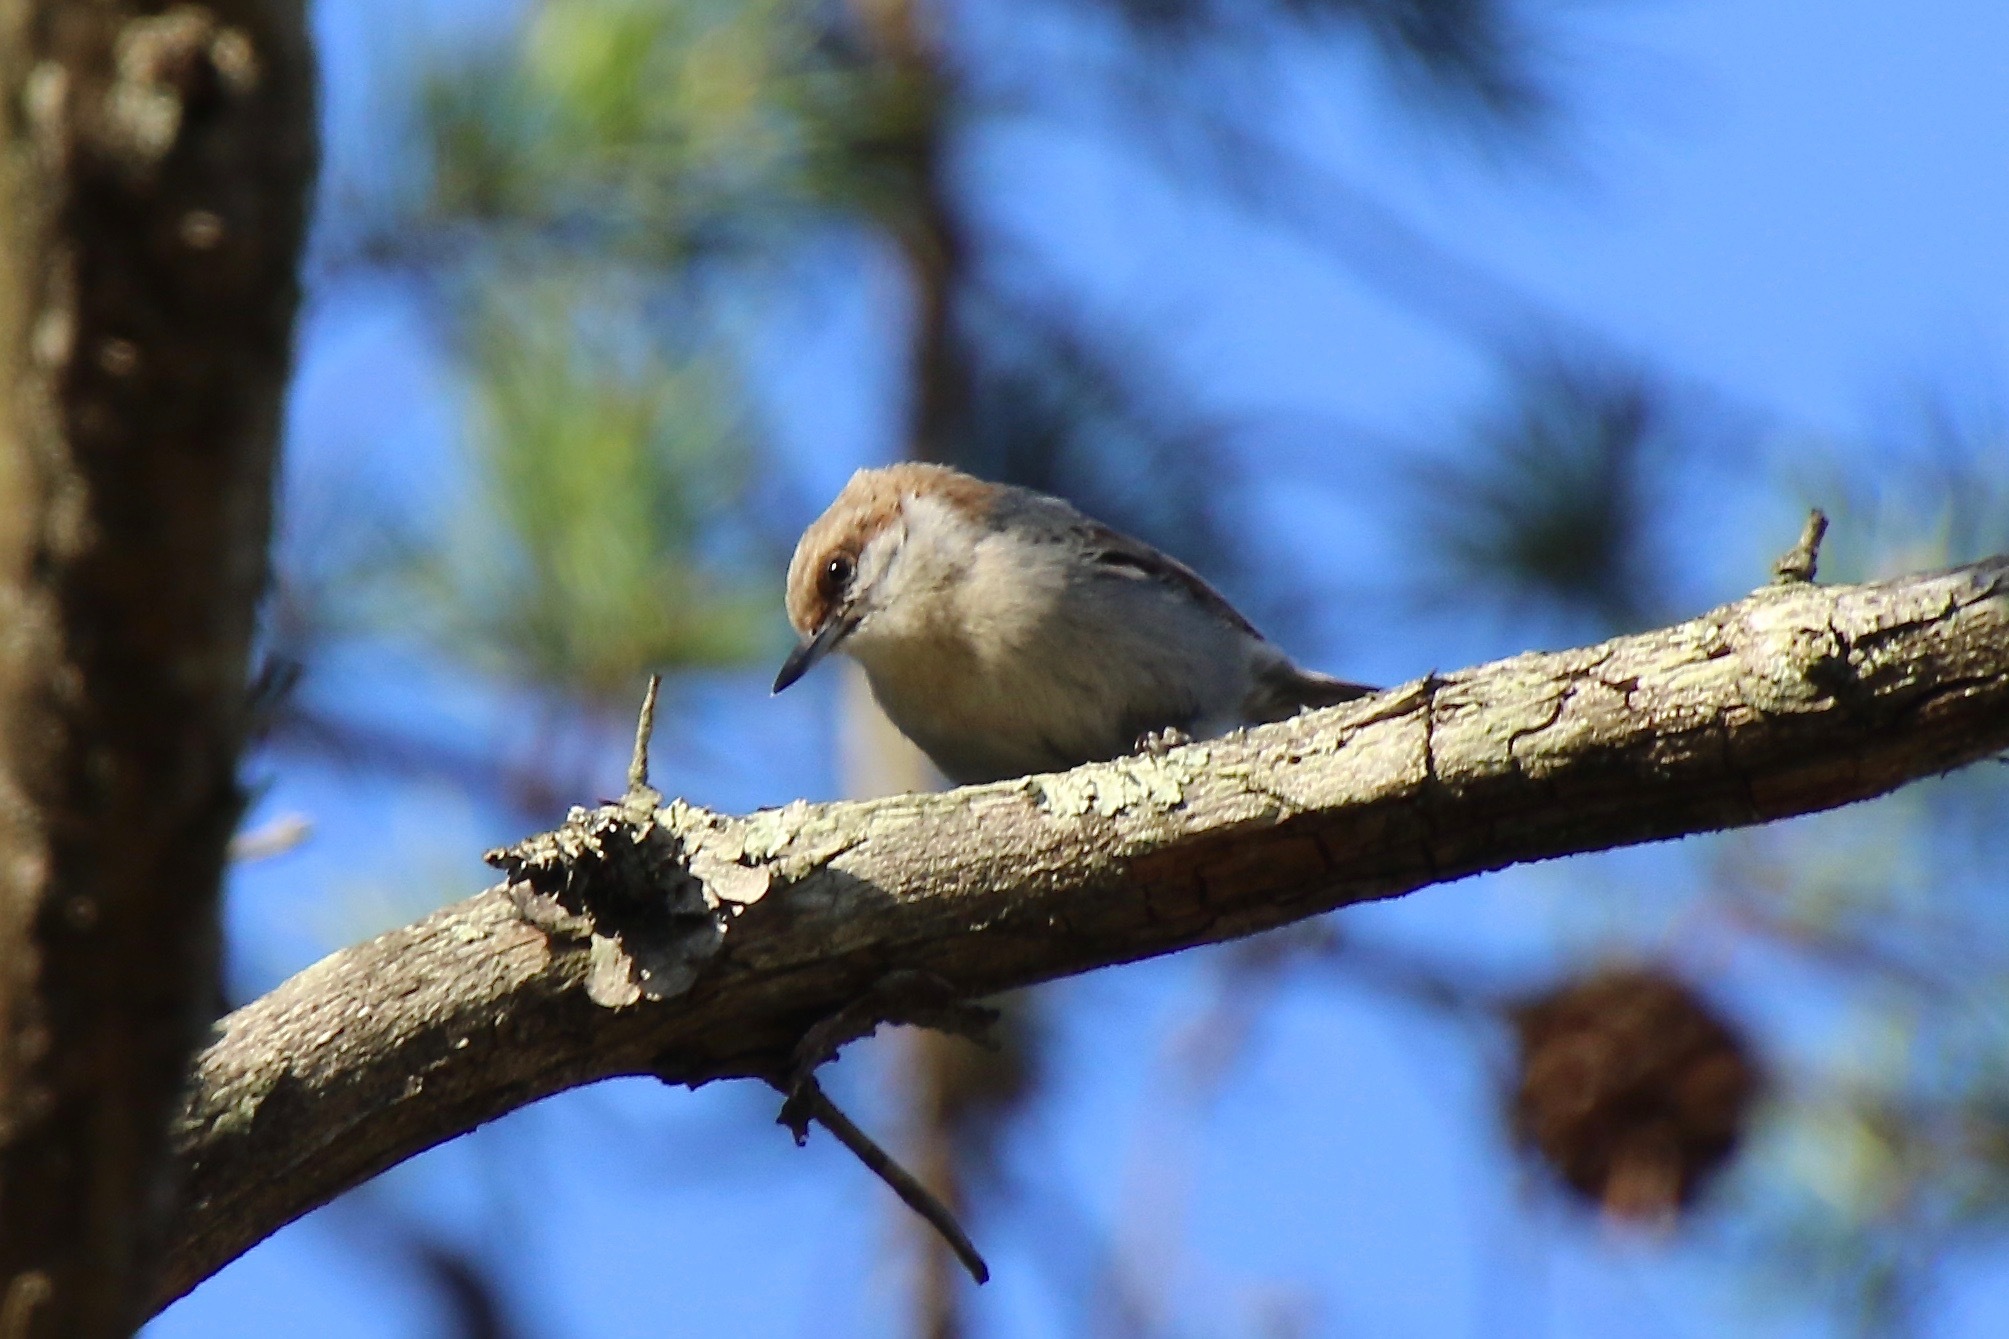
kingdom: Animalia
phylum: Chordata
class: Aves
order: Passeriformes
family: Sittidae
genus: Sitta
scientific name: Sitta pusilla
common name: Brown-headed nuthatch
